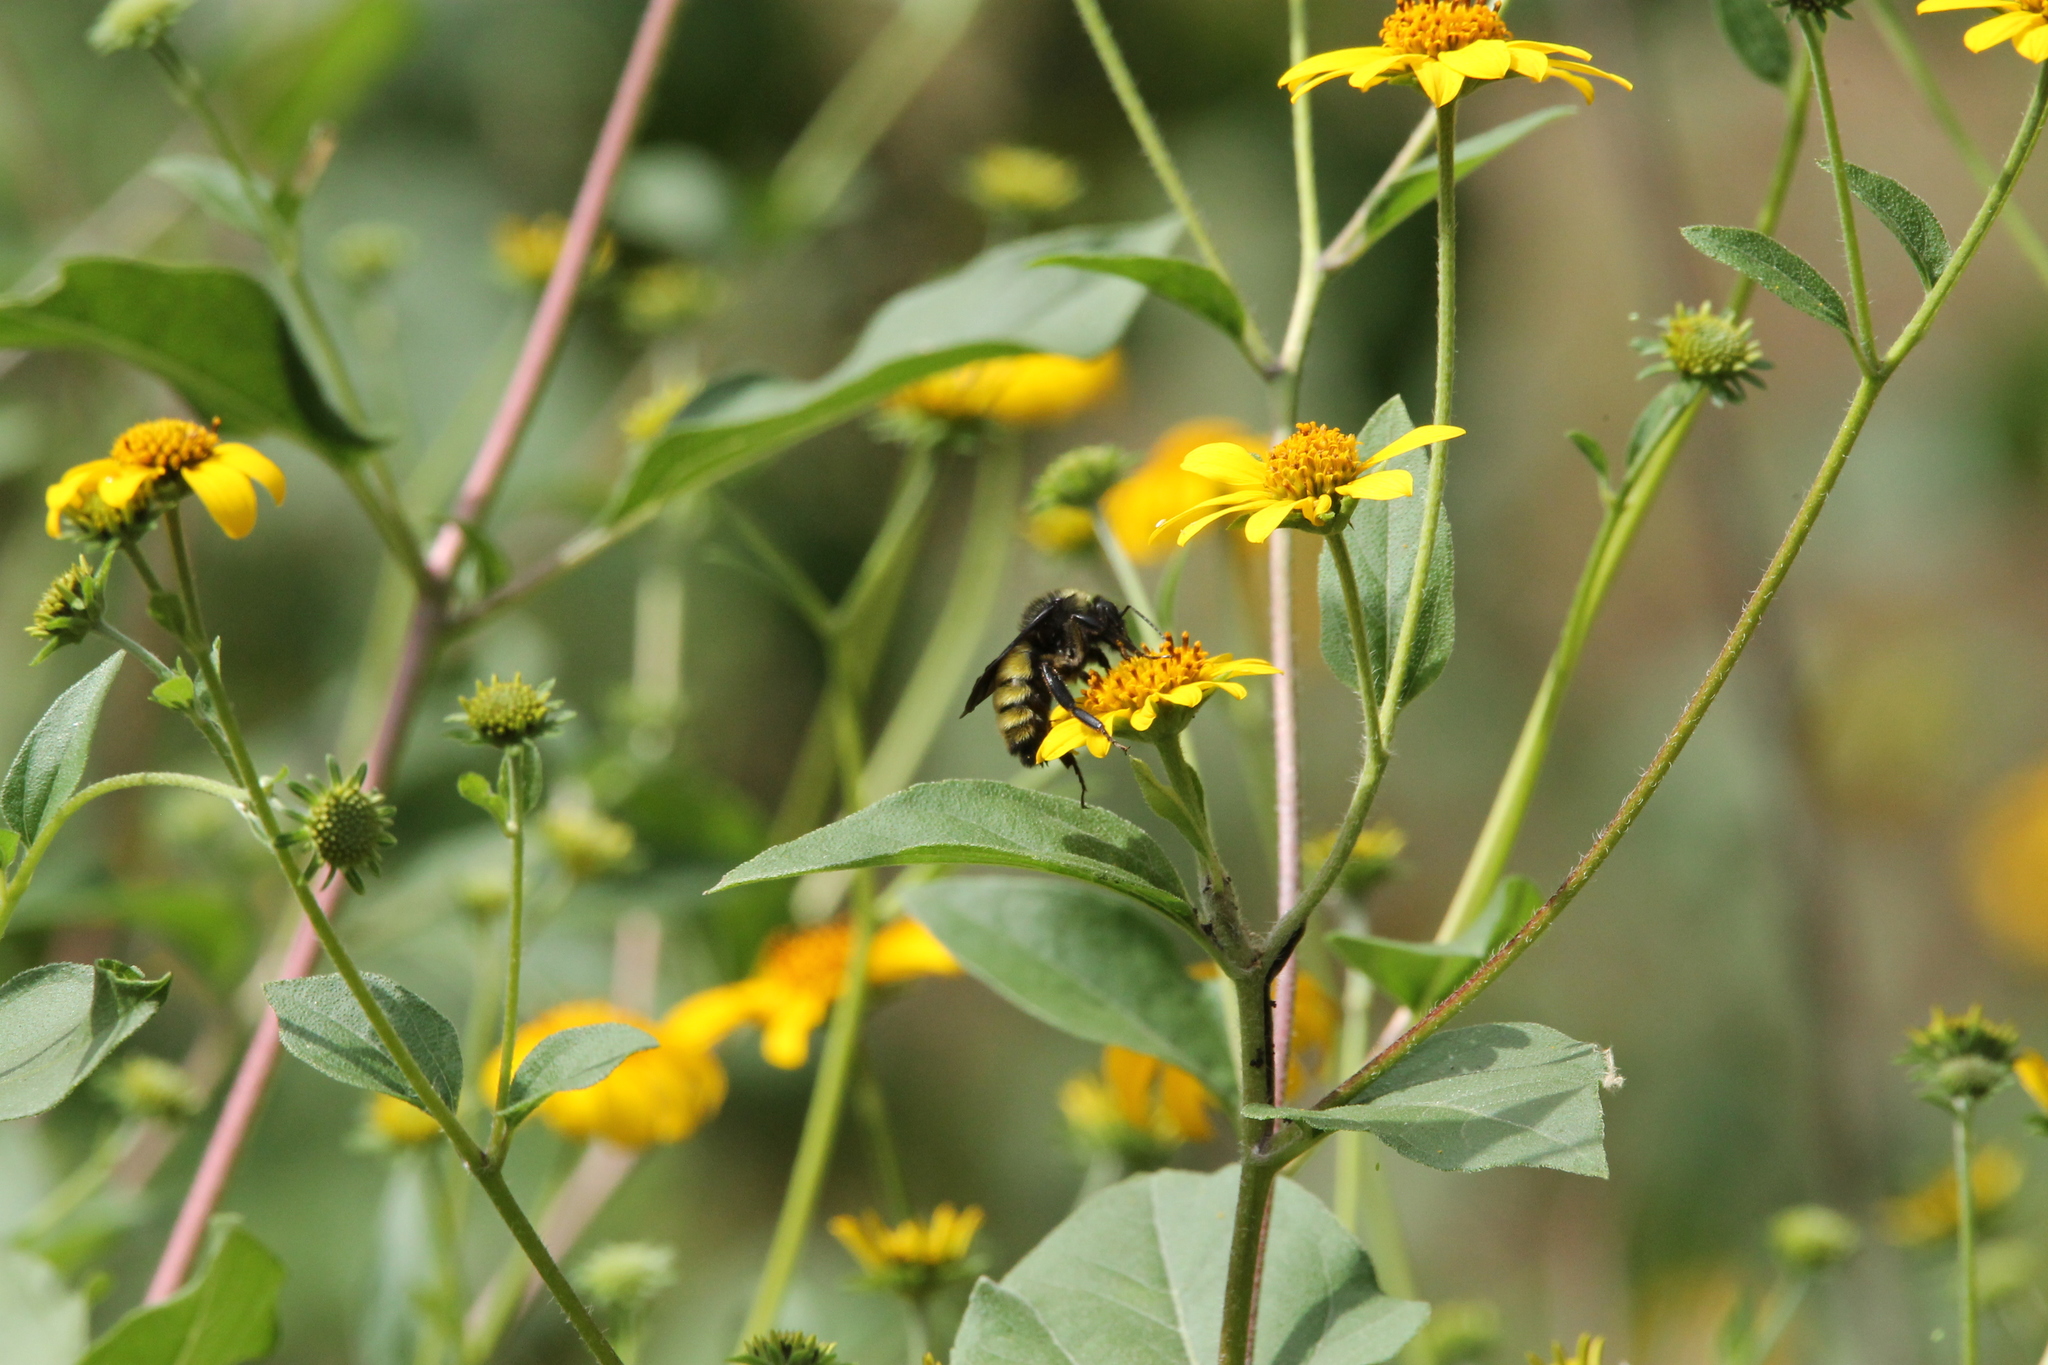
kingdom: Animalia
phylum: Arthropoda
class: Insecta
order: Hymenoptera
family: Apidae
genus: Bombus
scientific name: Bombus pensylvanicus
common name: Bumble bee
